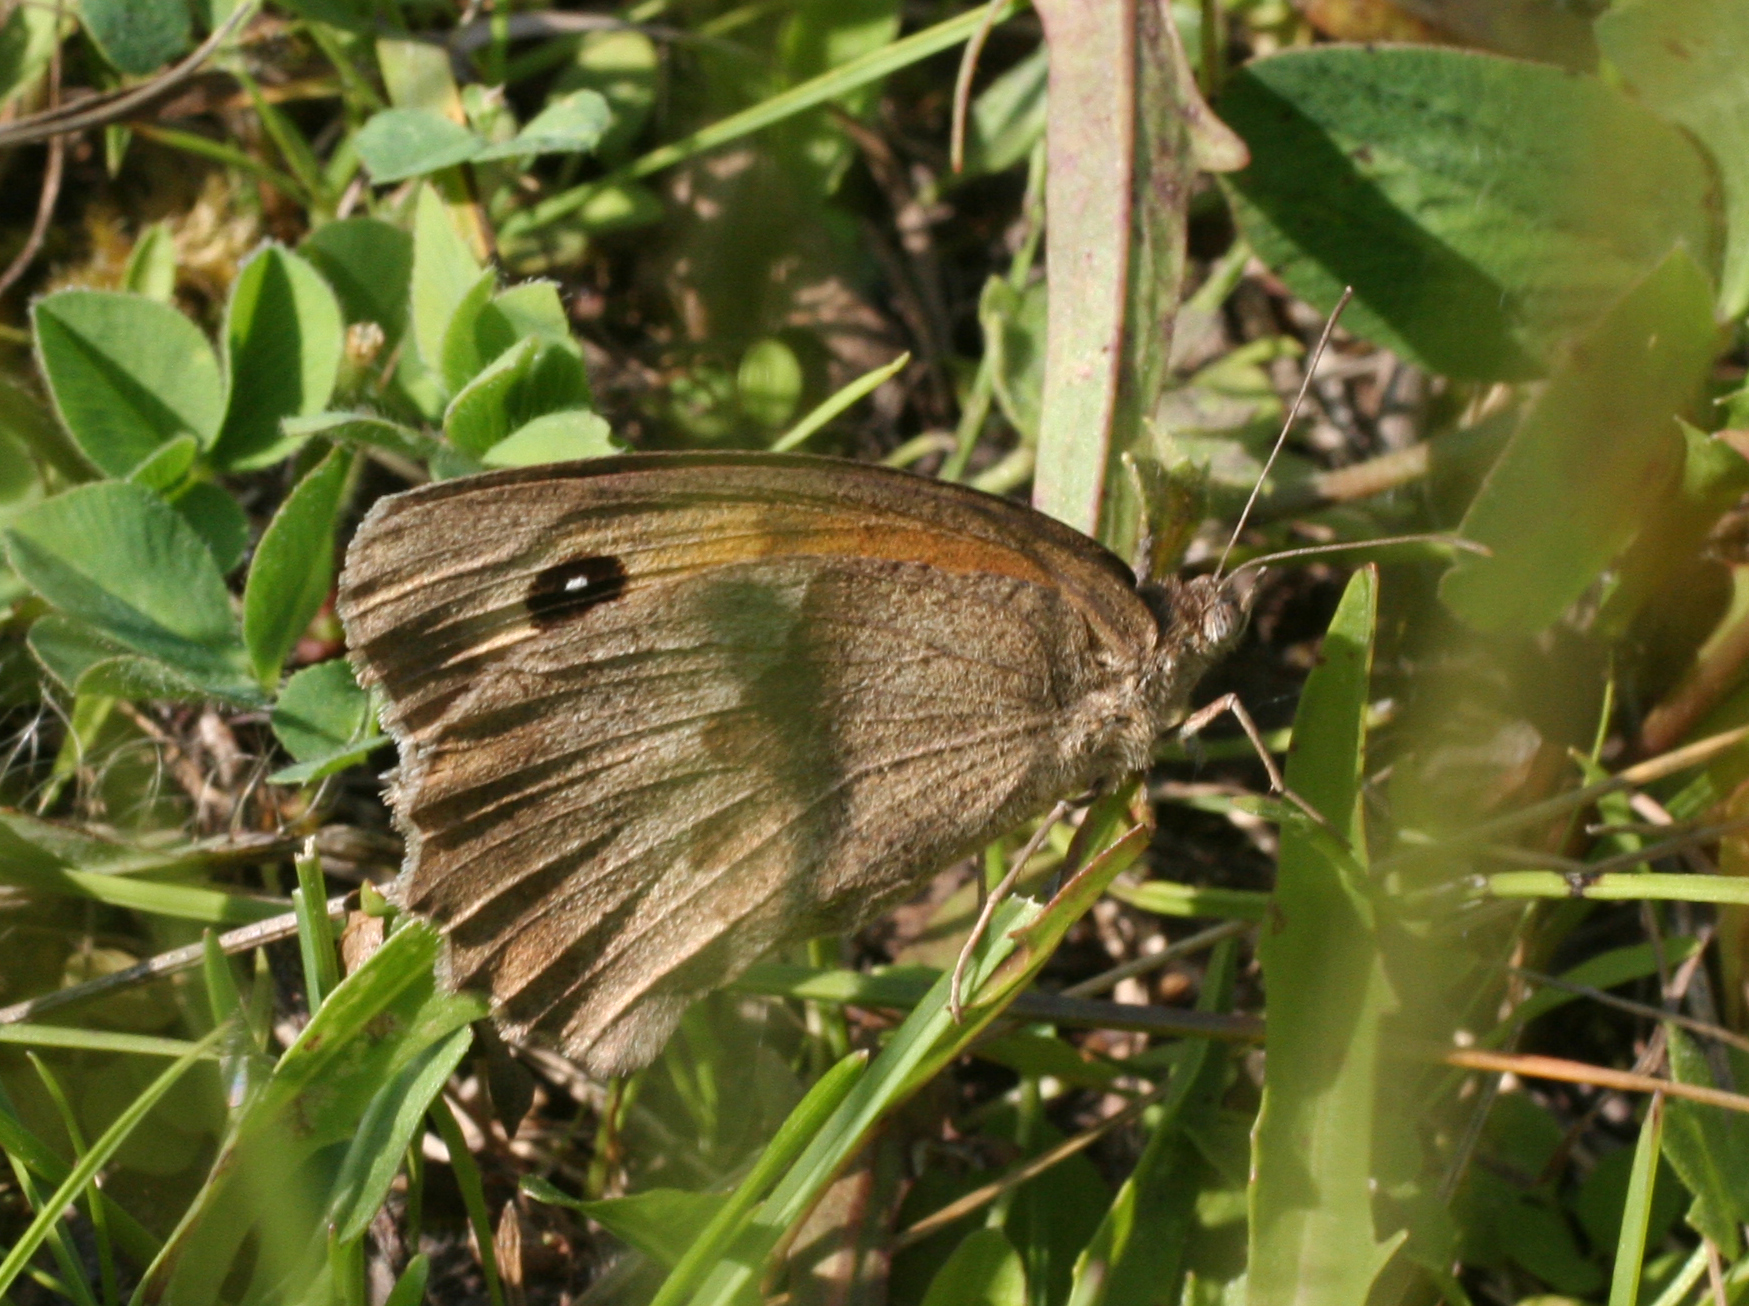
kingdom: Animalia
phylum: Arthropoda
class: Insecta
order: Lepidoptera
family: Nymphalidae
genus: Maniola
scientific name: Maniola jurtina
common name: Meadow brown
